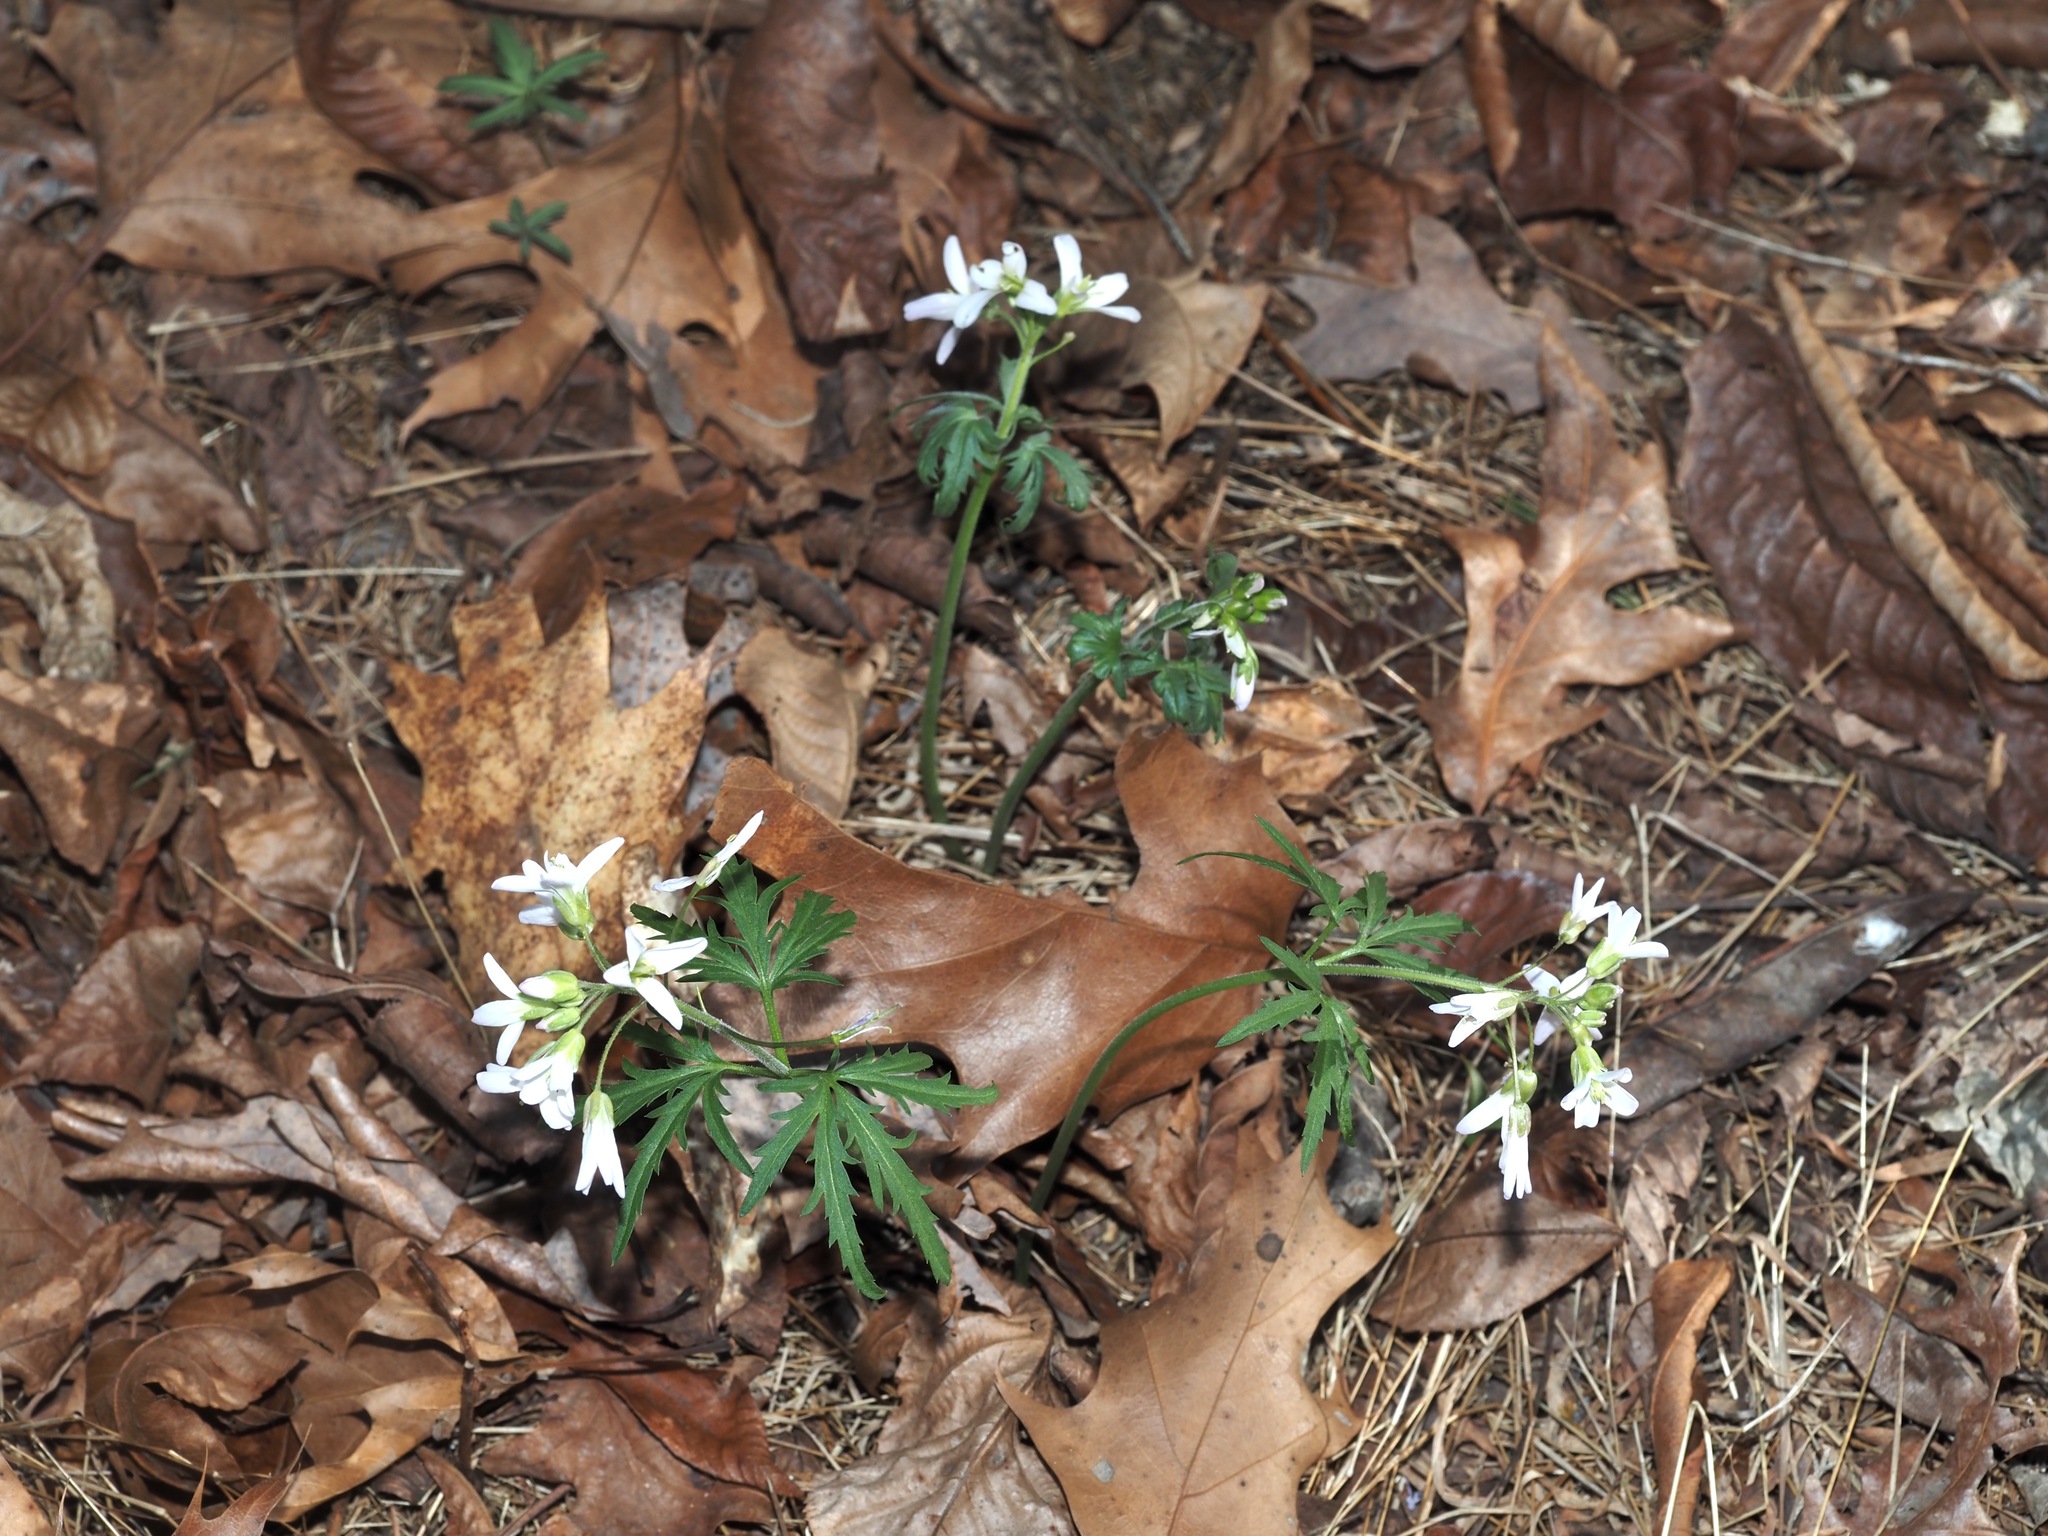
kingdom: Plantae
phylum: Tracheophyta
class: Magnoliopsida
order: Brassicales
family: Brassicaceae
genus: Cardamine
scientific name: Cardamine concatenata
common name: Cut-leaf toothcup
